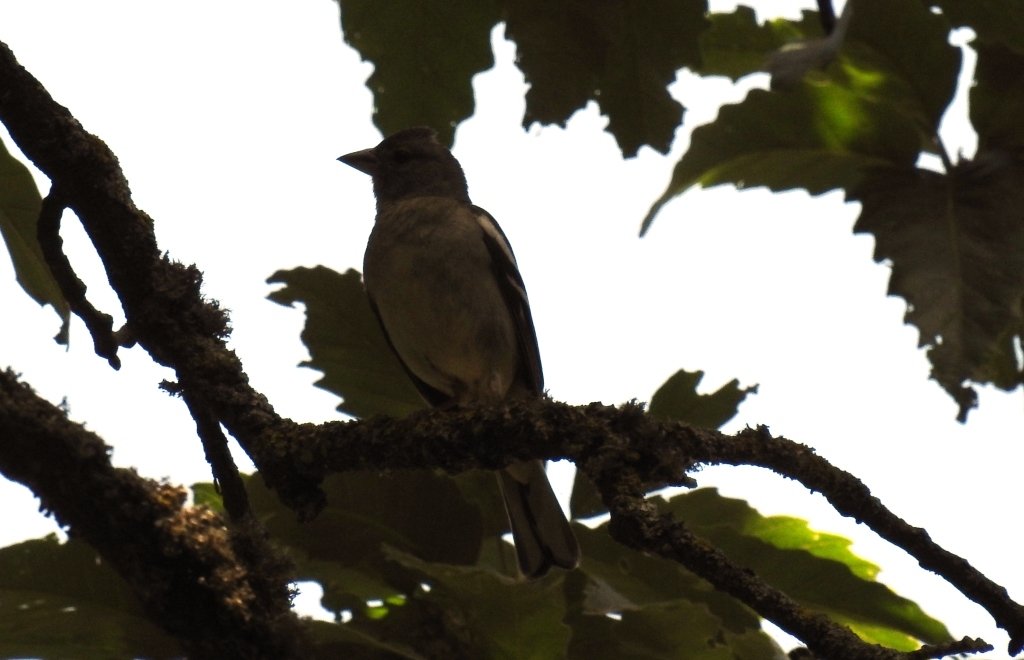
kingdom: Animalia
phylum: Chordata
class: Aves
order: Passeriformes
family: Fringillidae
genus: Fringilla
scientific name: Fringilla spodiogenys
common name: African chaffinch
